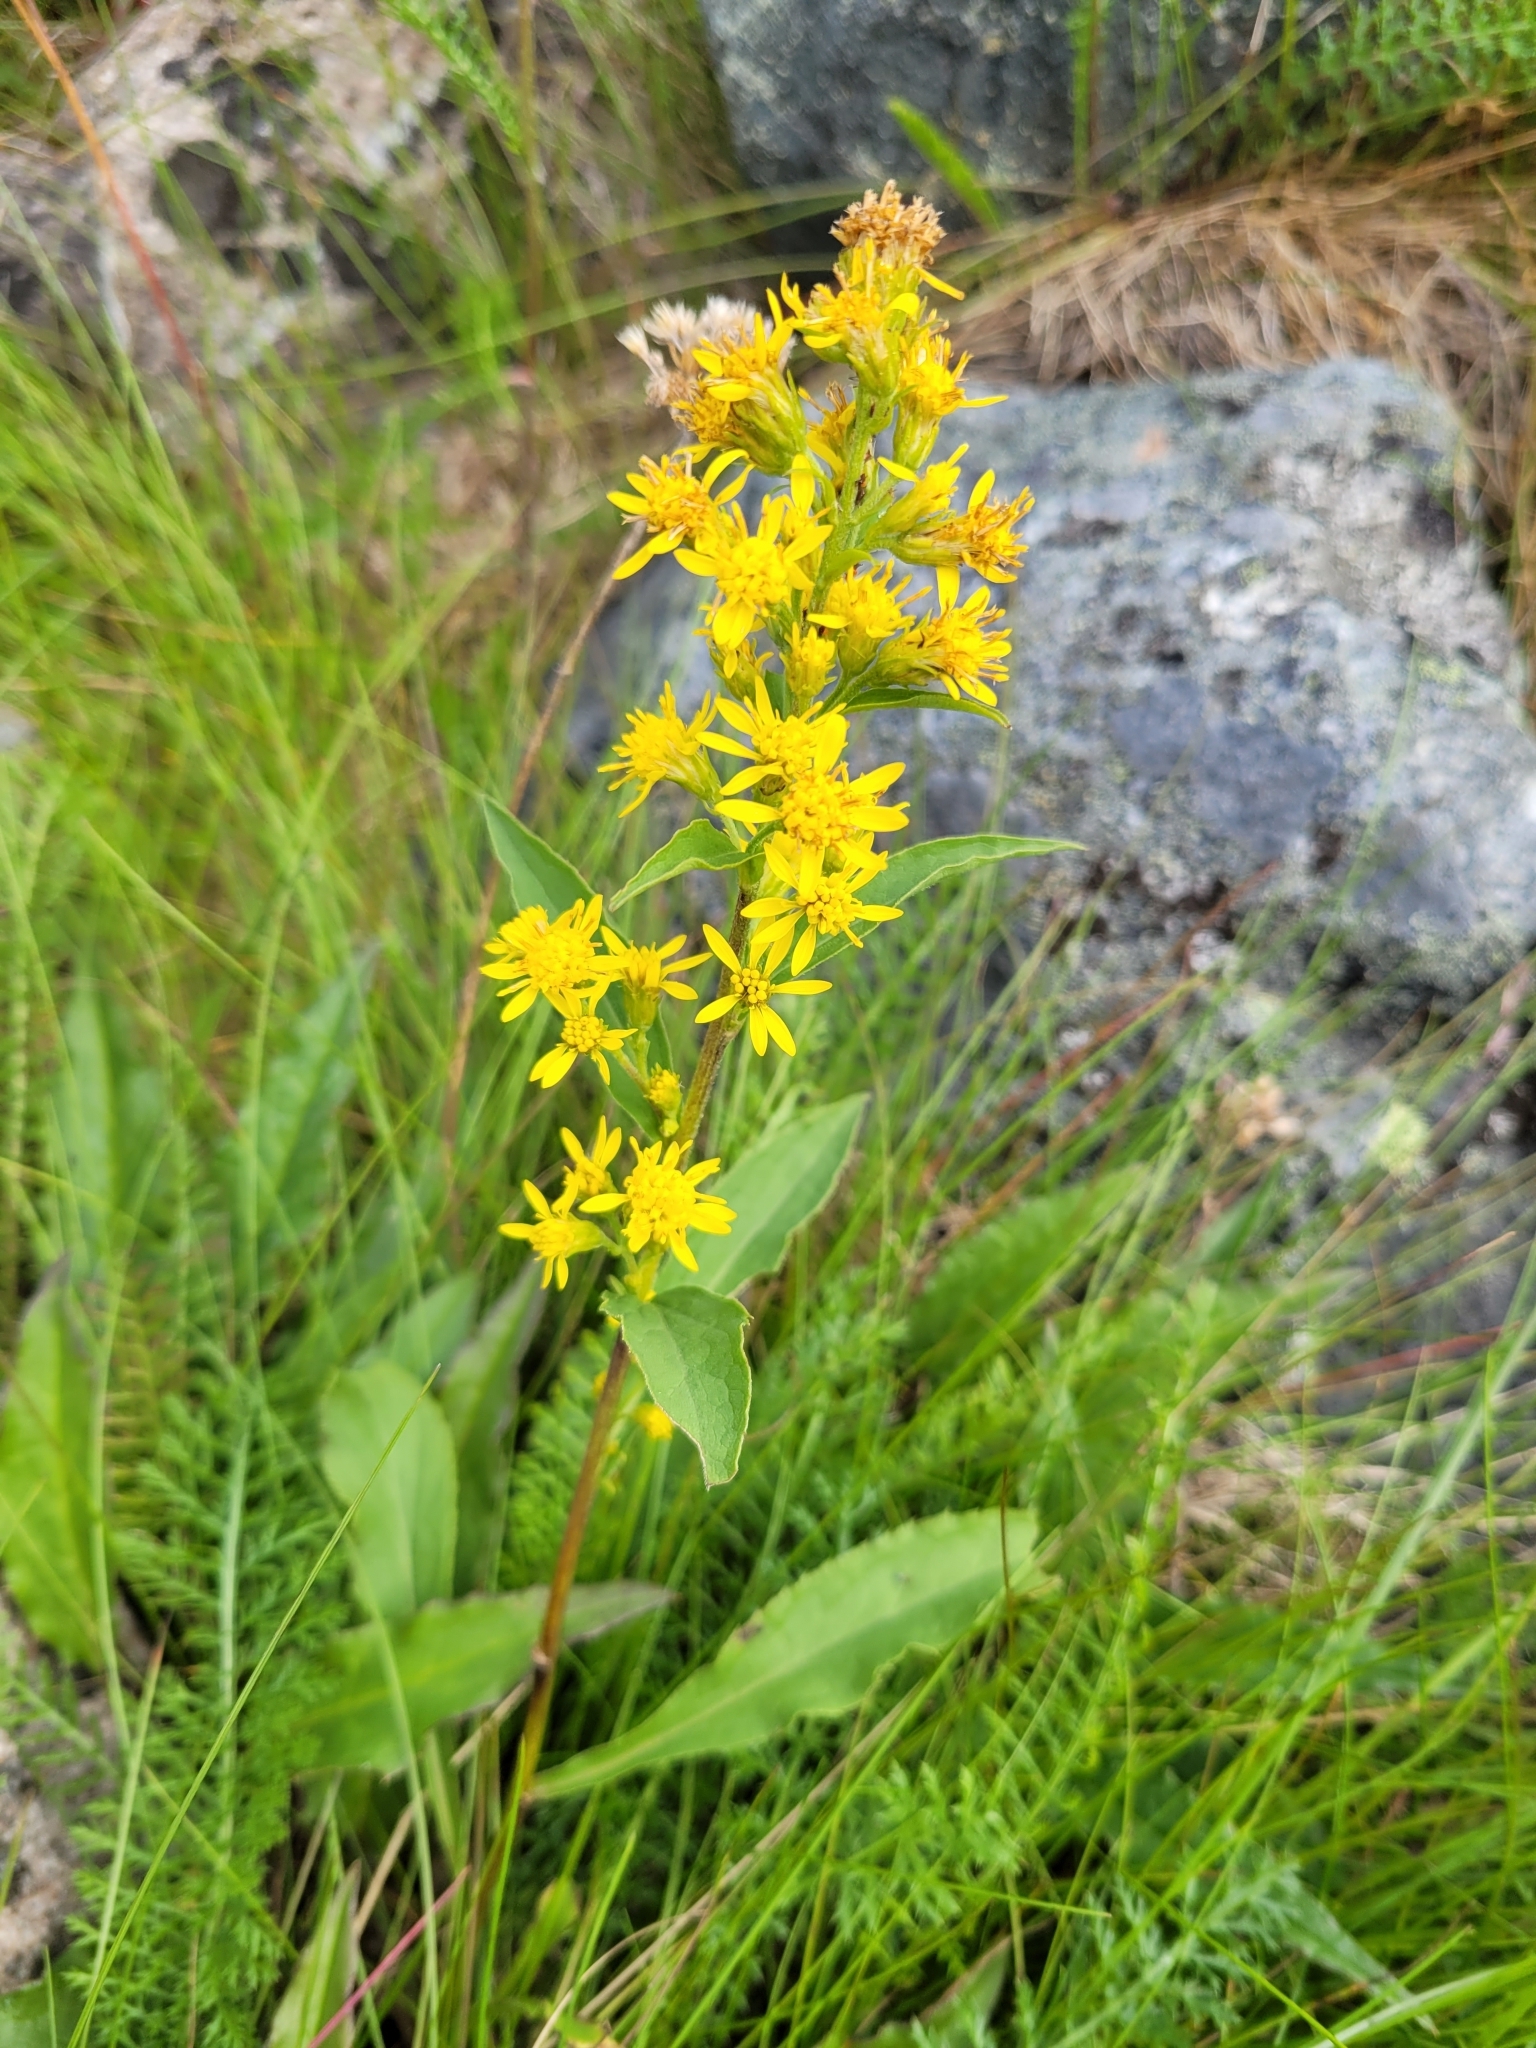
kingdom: Plantae
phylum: Tracheophyta
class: Magnoliopsida
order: Asterales
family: Asteraceae
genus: Solidago
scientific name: Solidago virgaurea
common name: Goldenrod
